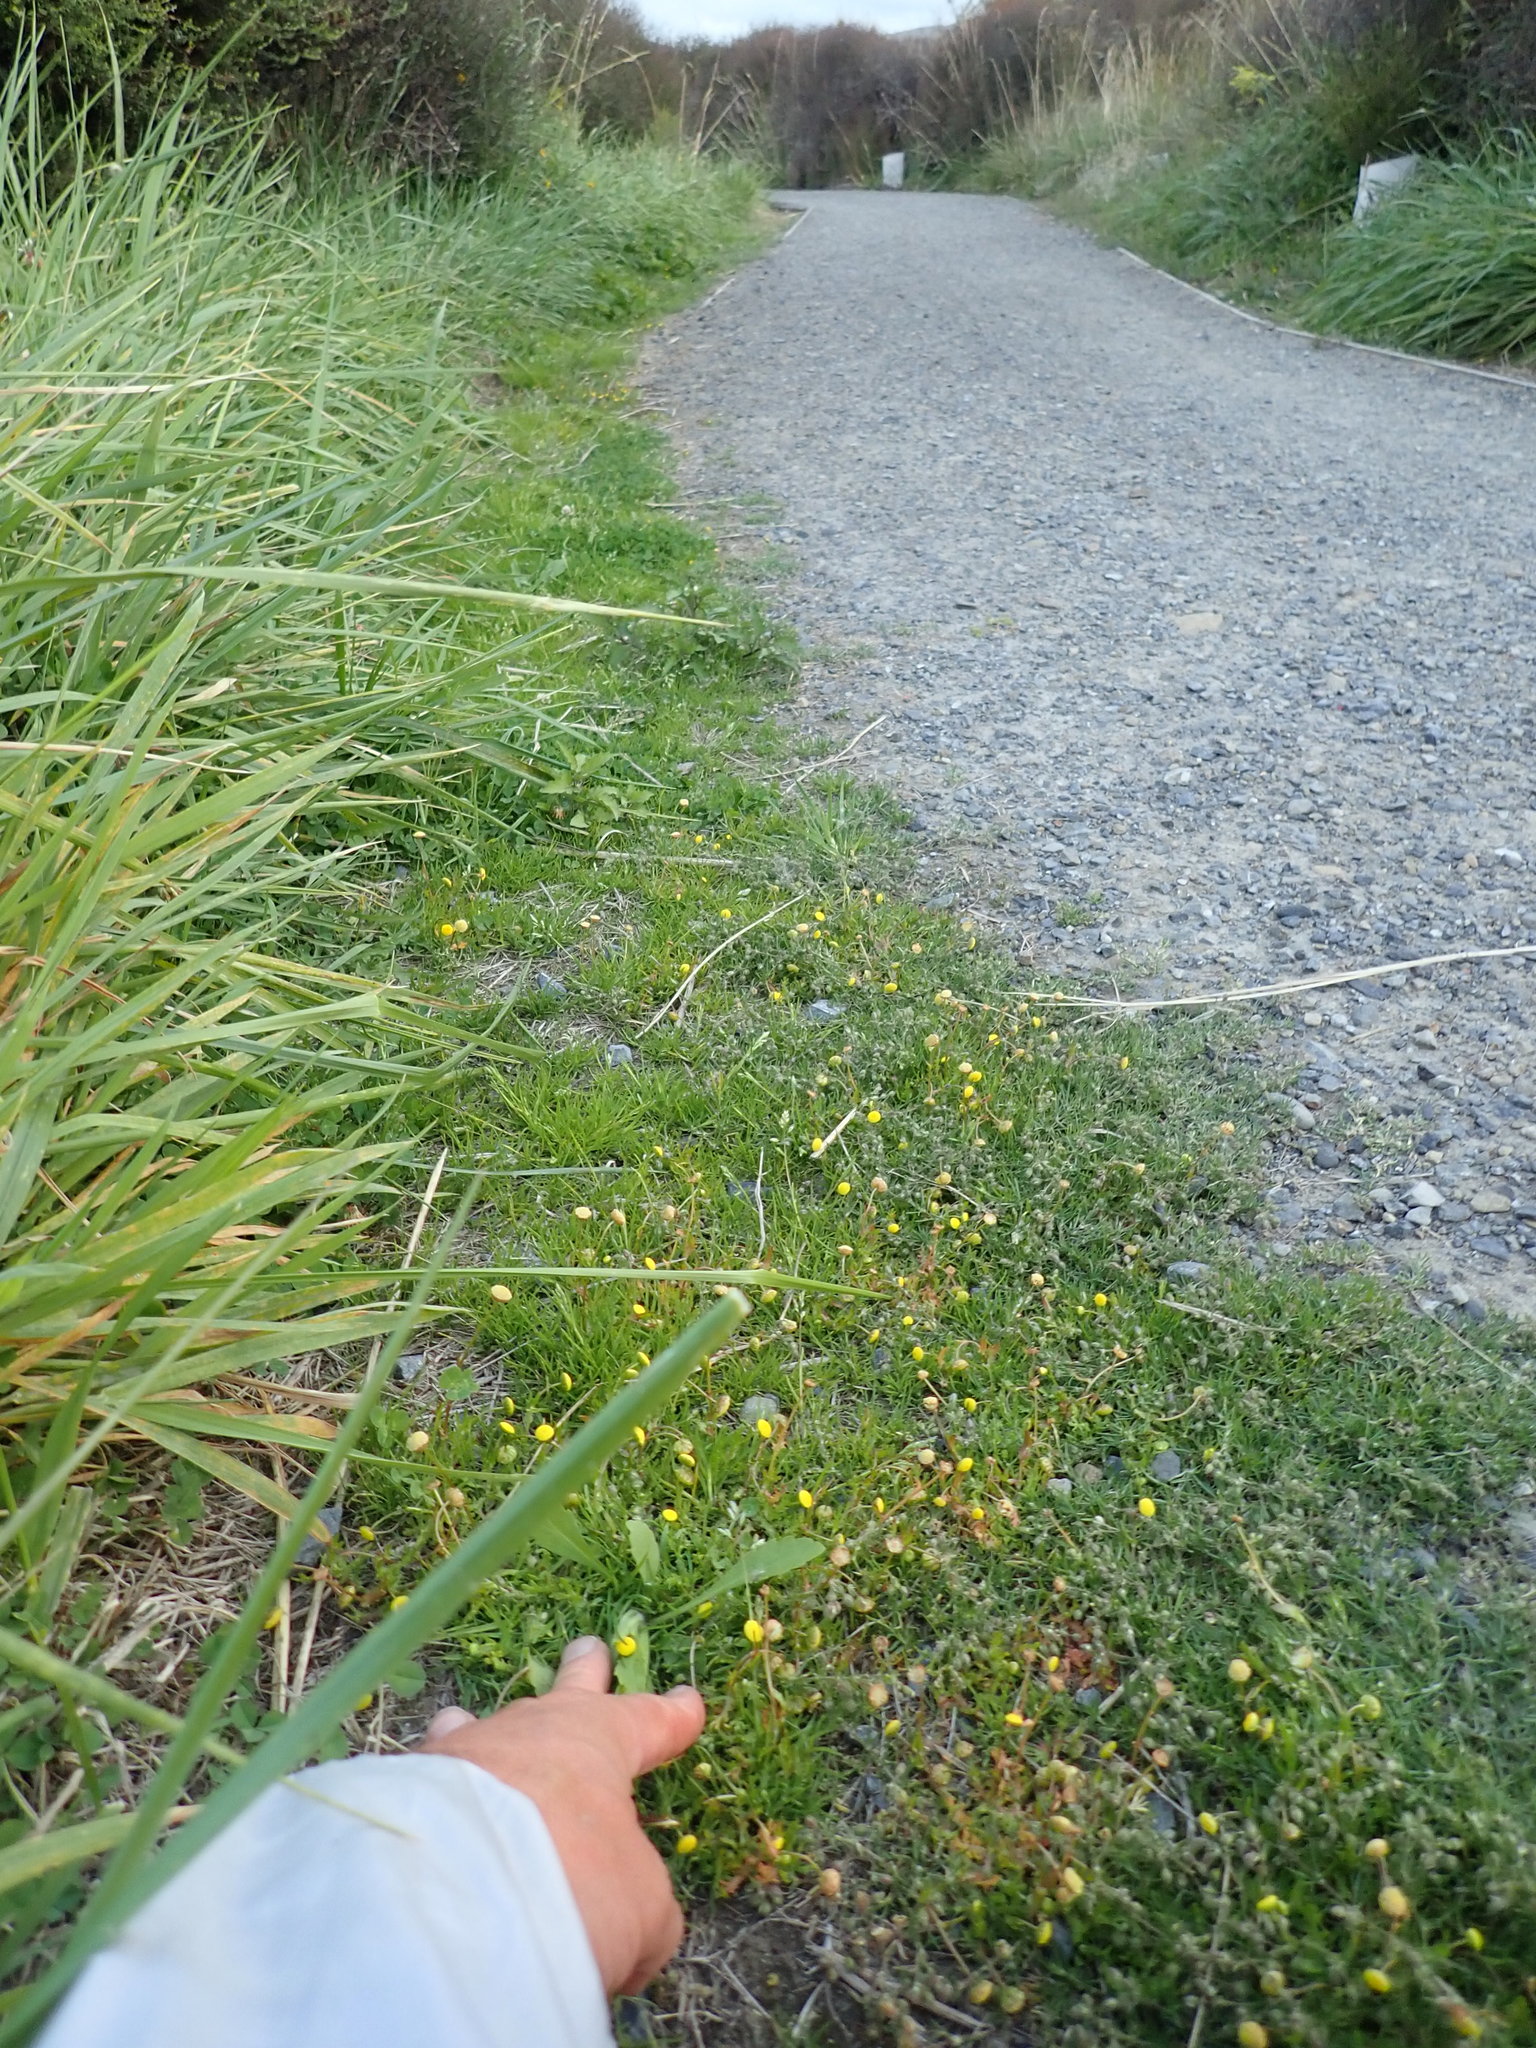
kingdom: Plantae
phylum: Tracheophyta
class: Magnoliopsida
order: Asterales
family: Asteraceae
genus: Cotula
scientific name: Cotula coronopifolia
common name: Buttonweed
